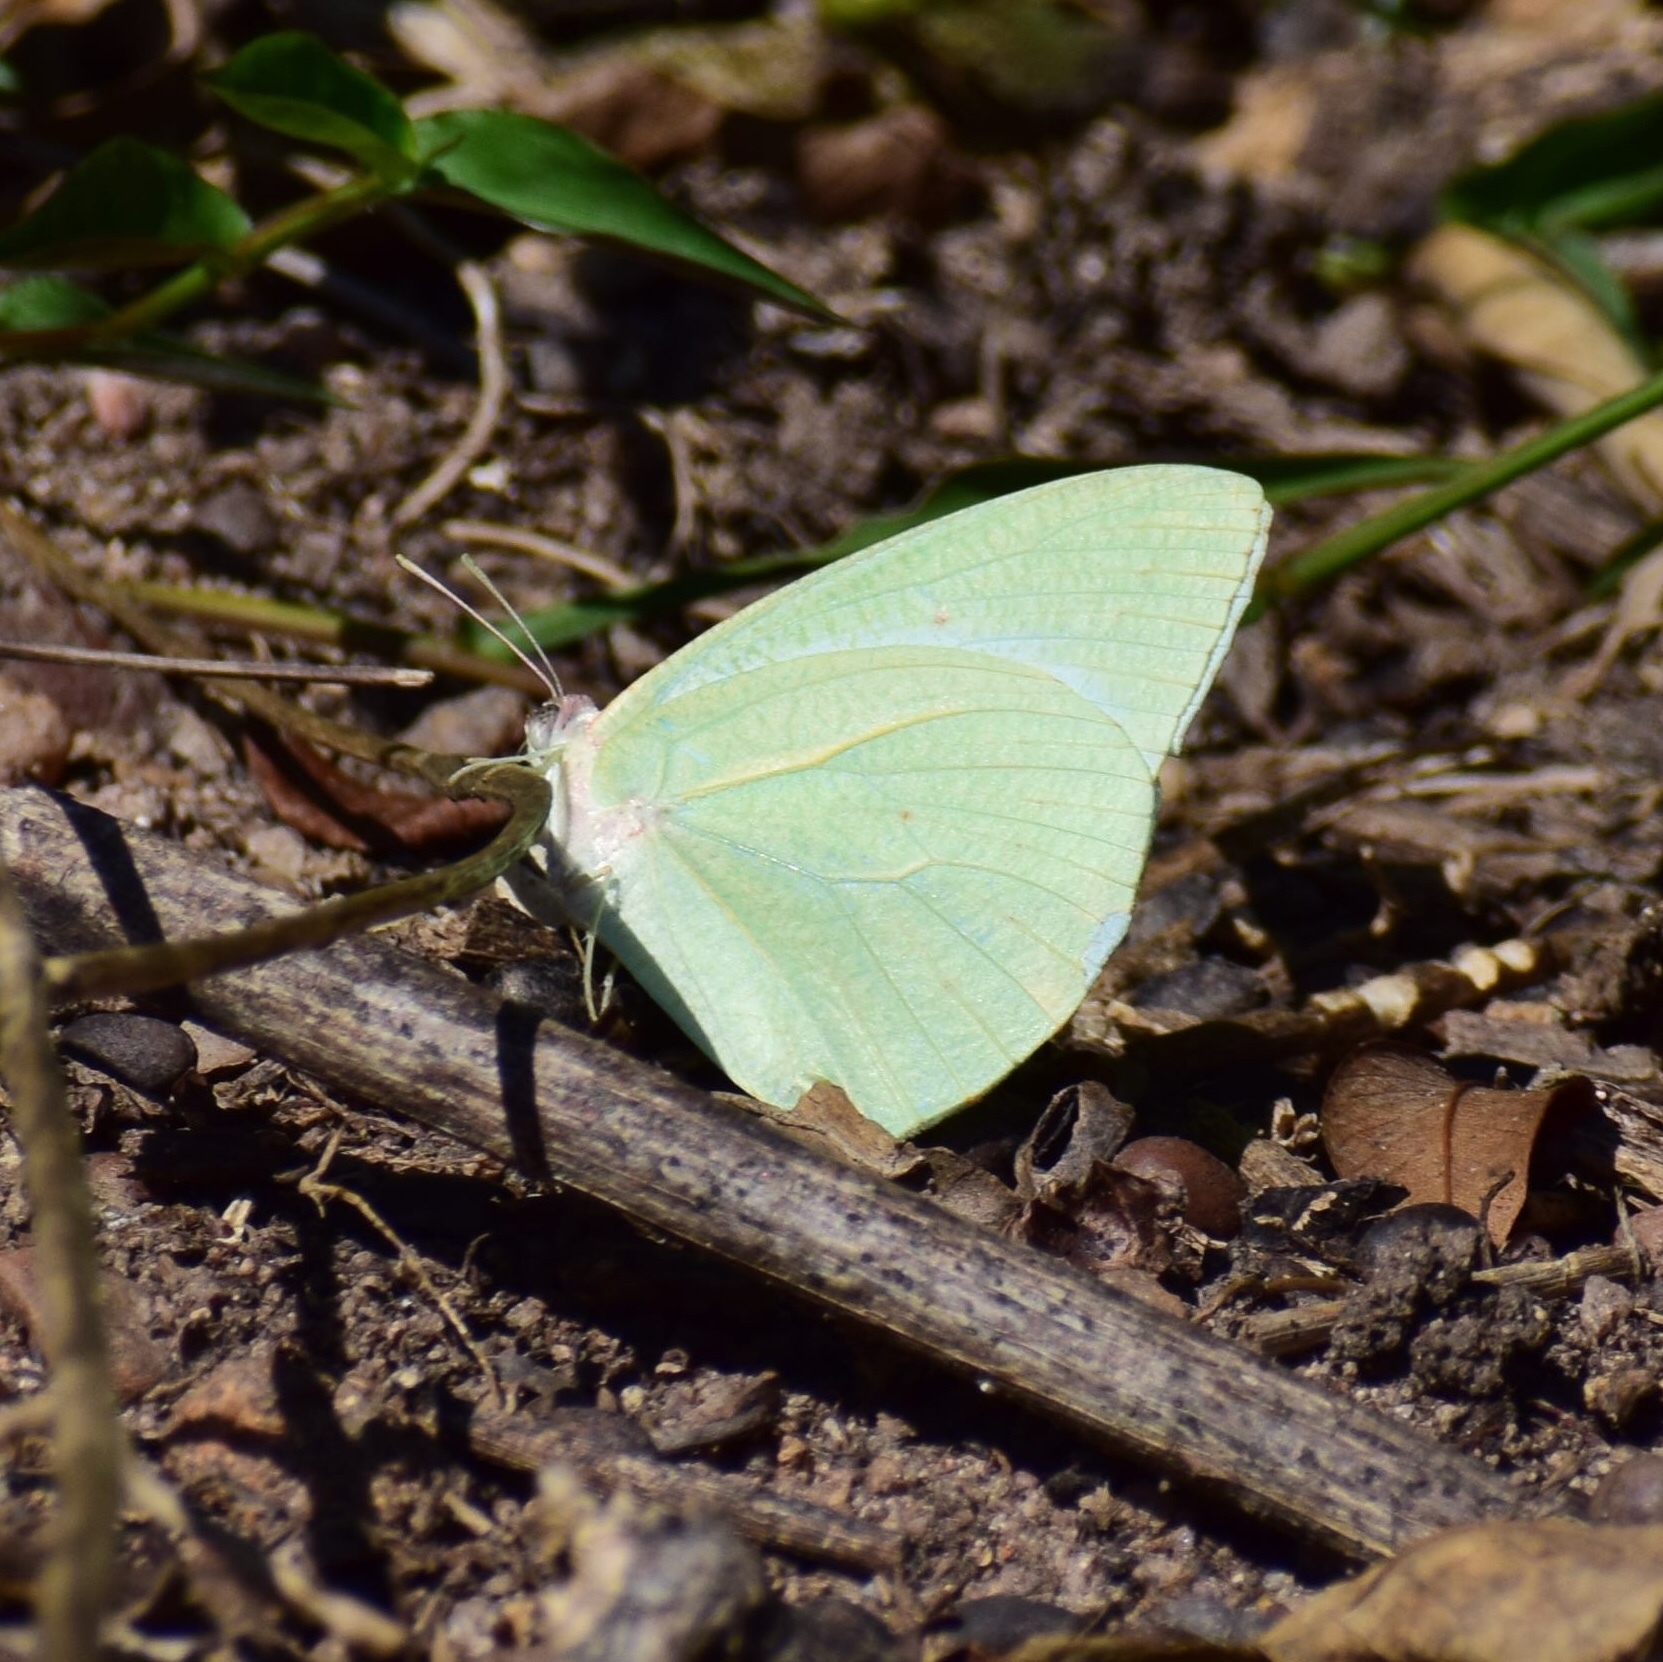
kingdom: Animalia
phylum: Arthropoda
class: Insecta
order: Lepidoptera
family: Pieridae
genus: Catopsilia
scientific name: Catopsilia florella
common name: African migrant
